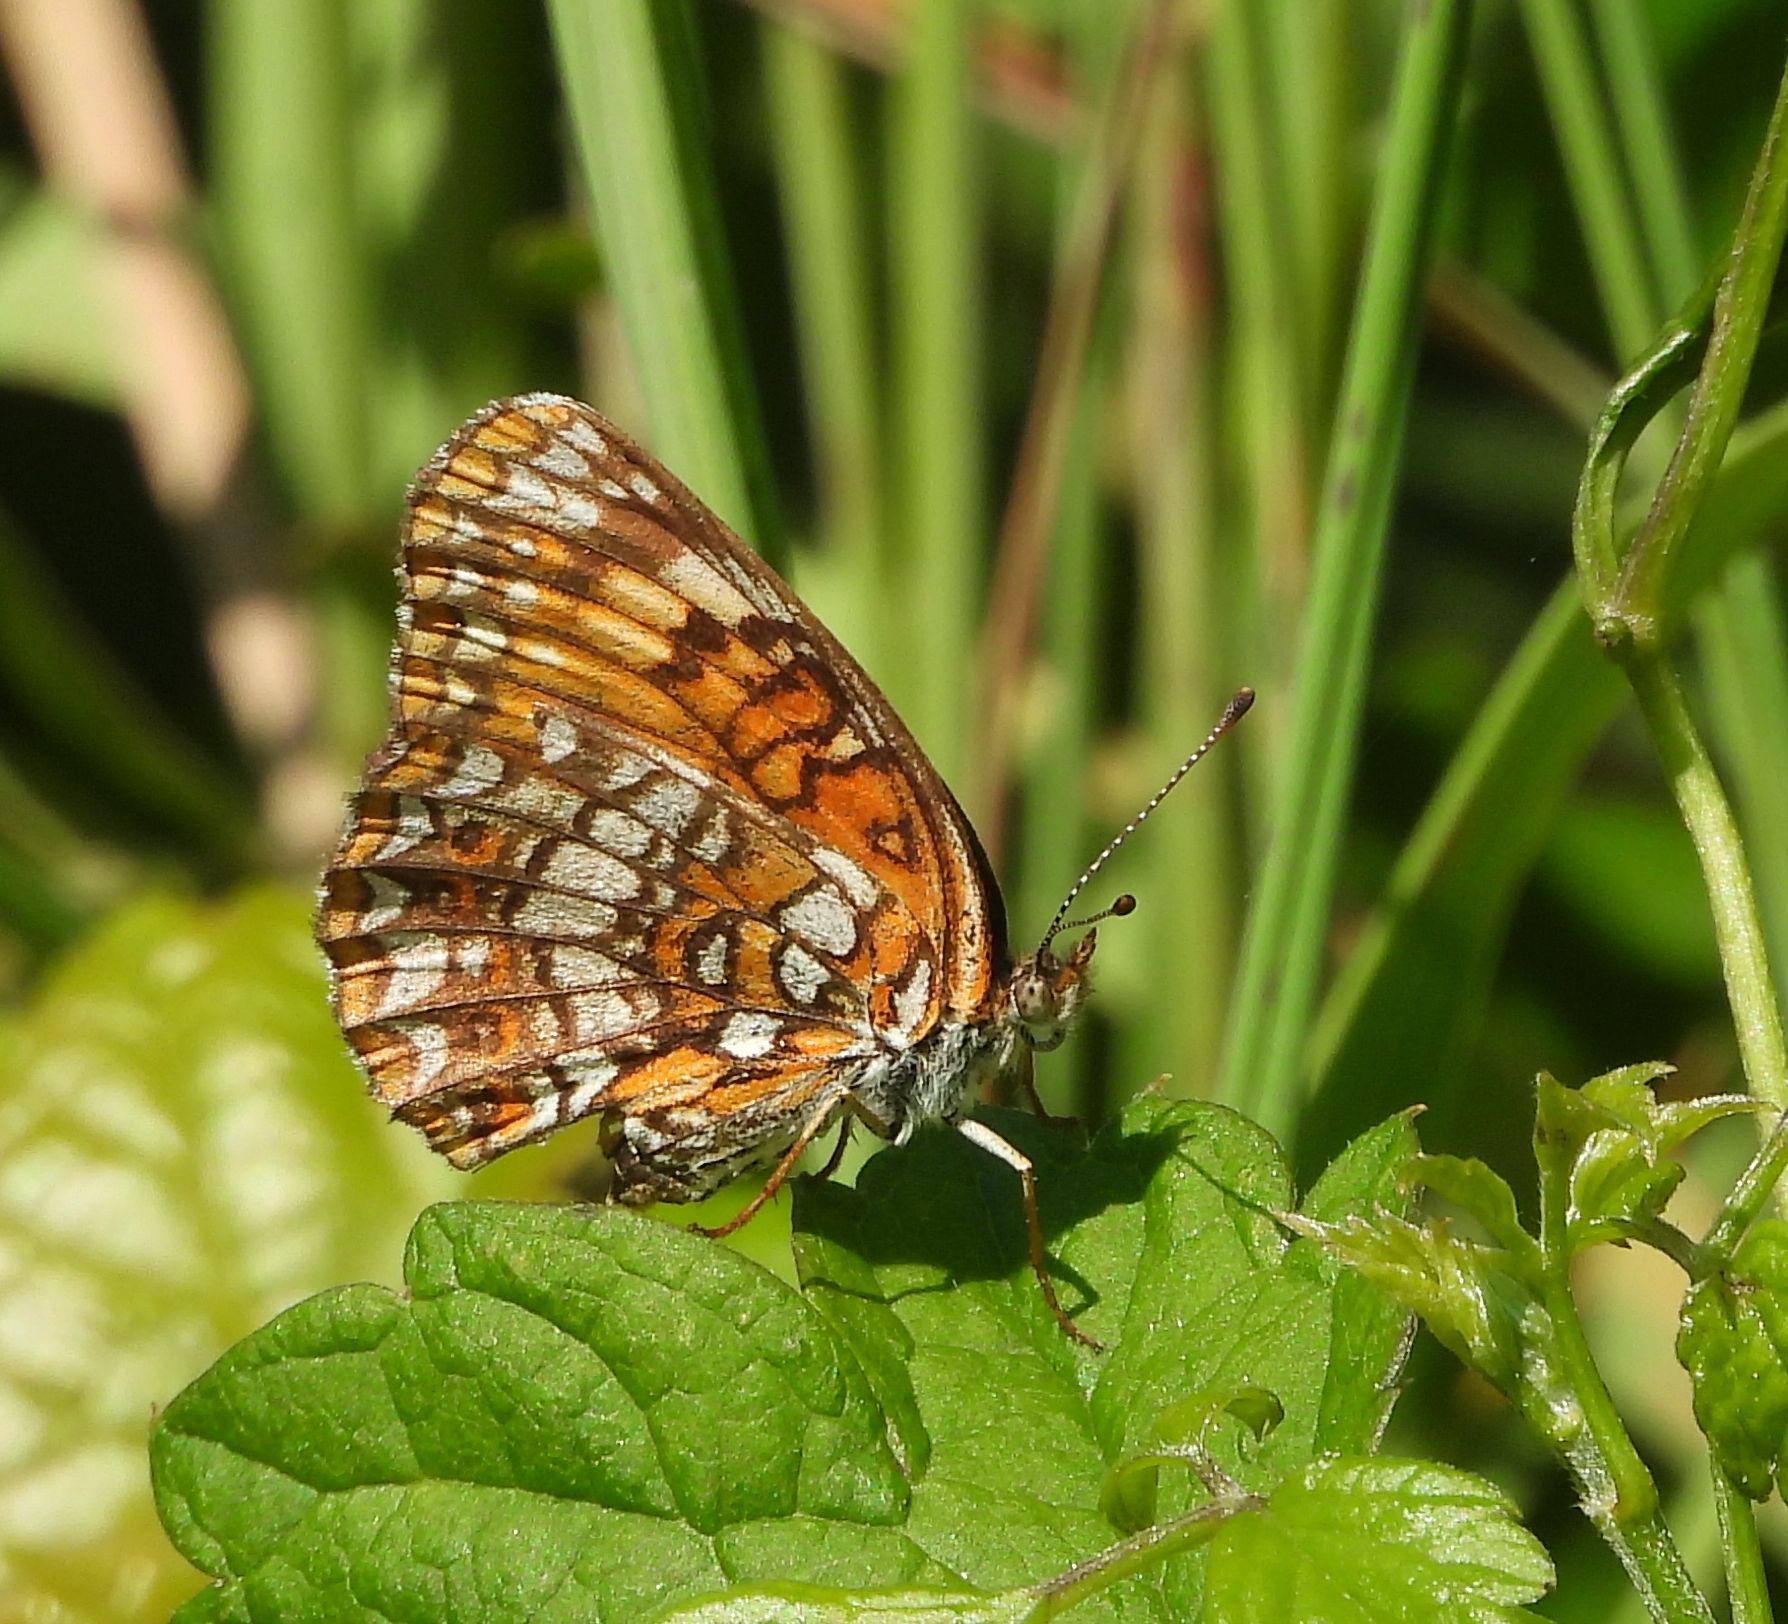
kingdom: Animalia
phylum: Arthropoda
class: Insecta
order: Lepidoptera
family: Nymphalidae
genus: Chlosyne
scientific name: Chlosyne harrisii
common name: Harris's checkerspot
